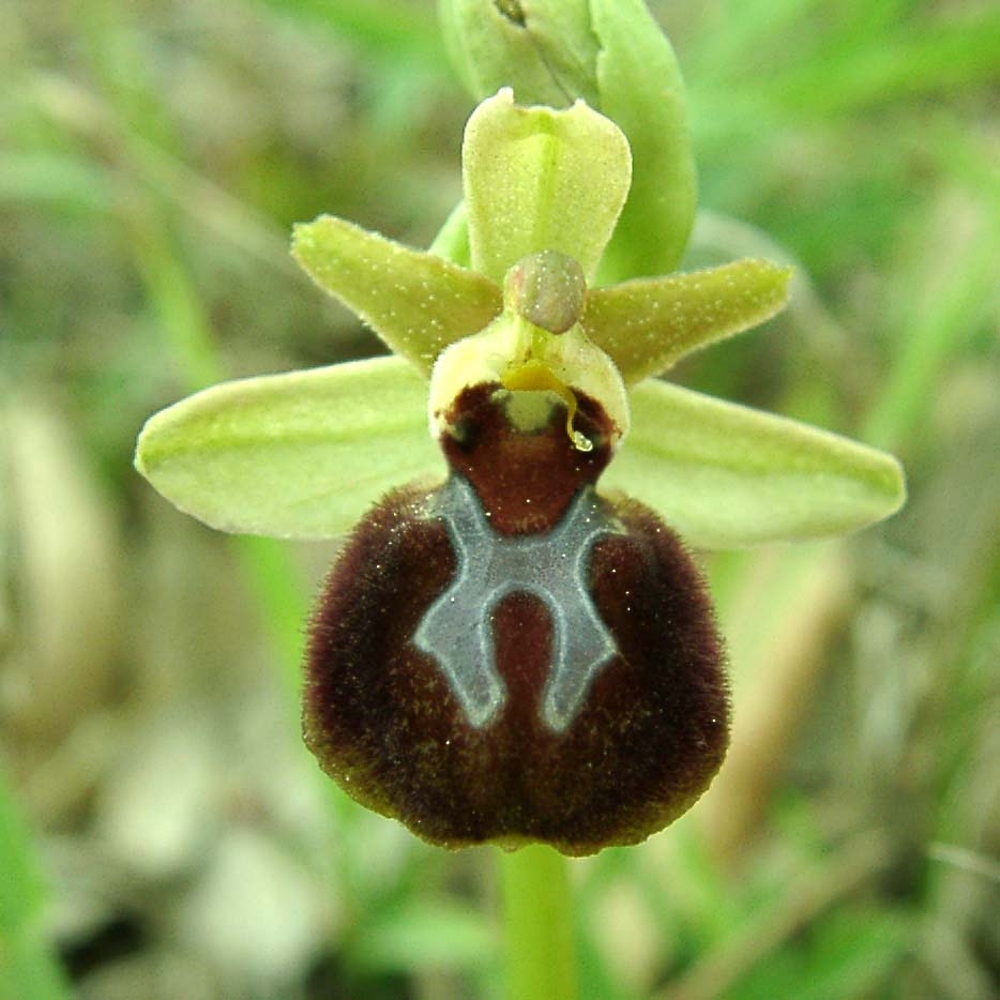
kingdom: Plantae
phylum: Tracheophyta
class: Liliopsida
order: Asparagales
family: Orchidaceae
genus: Ophrys
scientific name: Ophrys sphegodes
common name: Early spider-orchid
